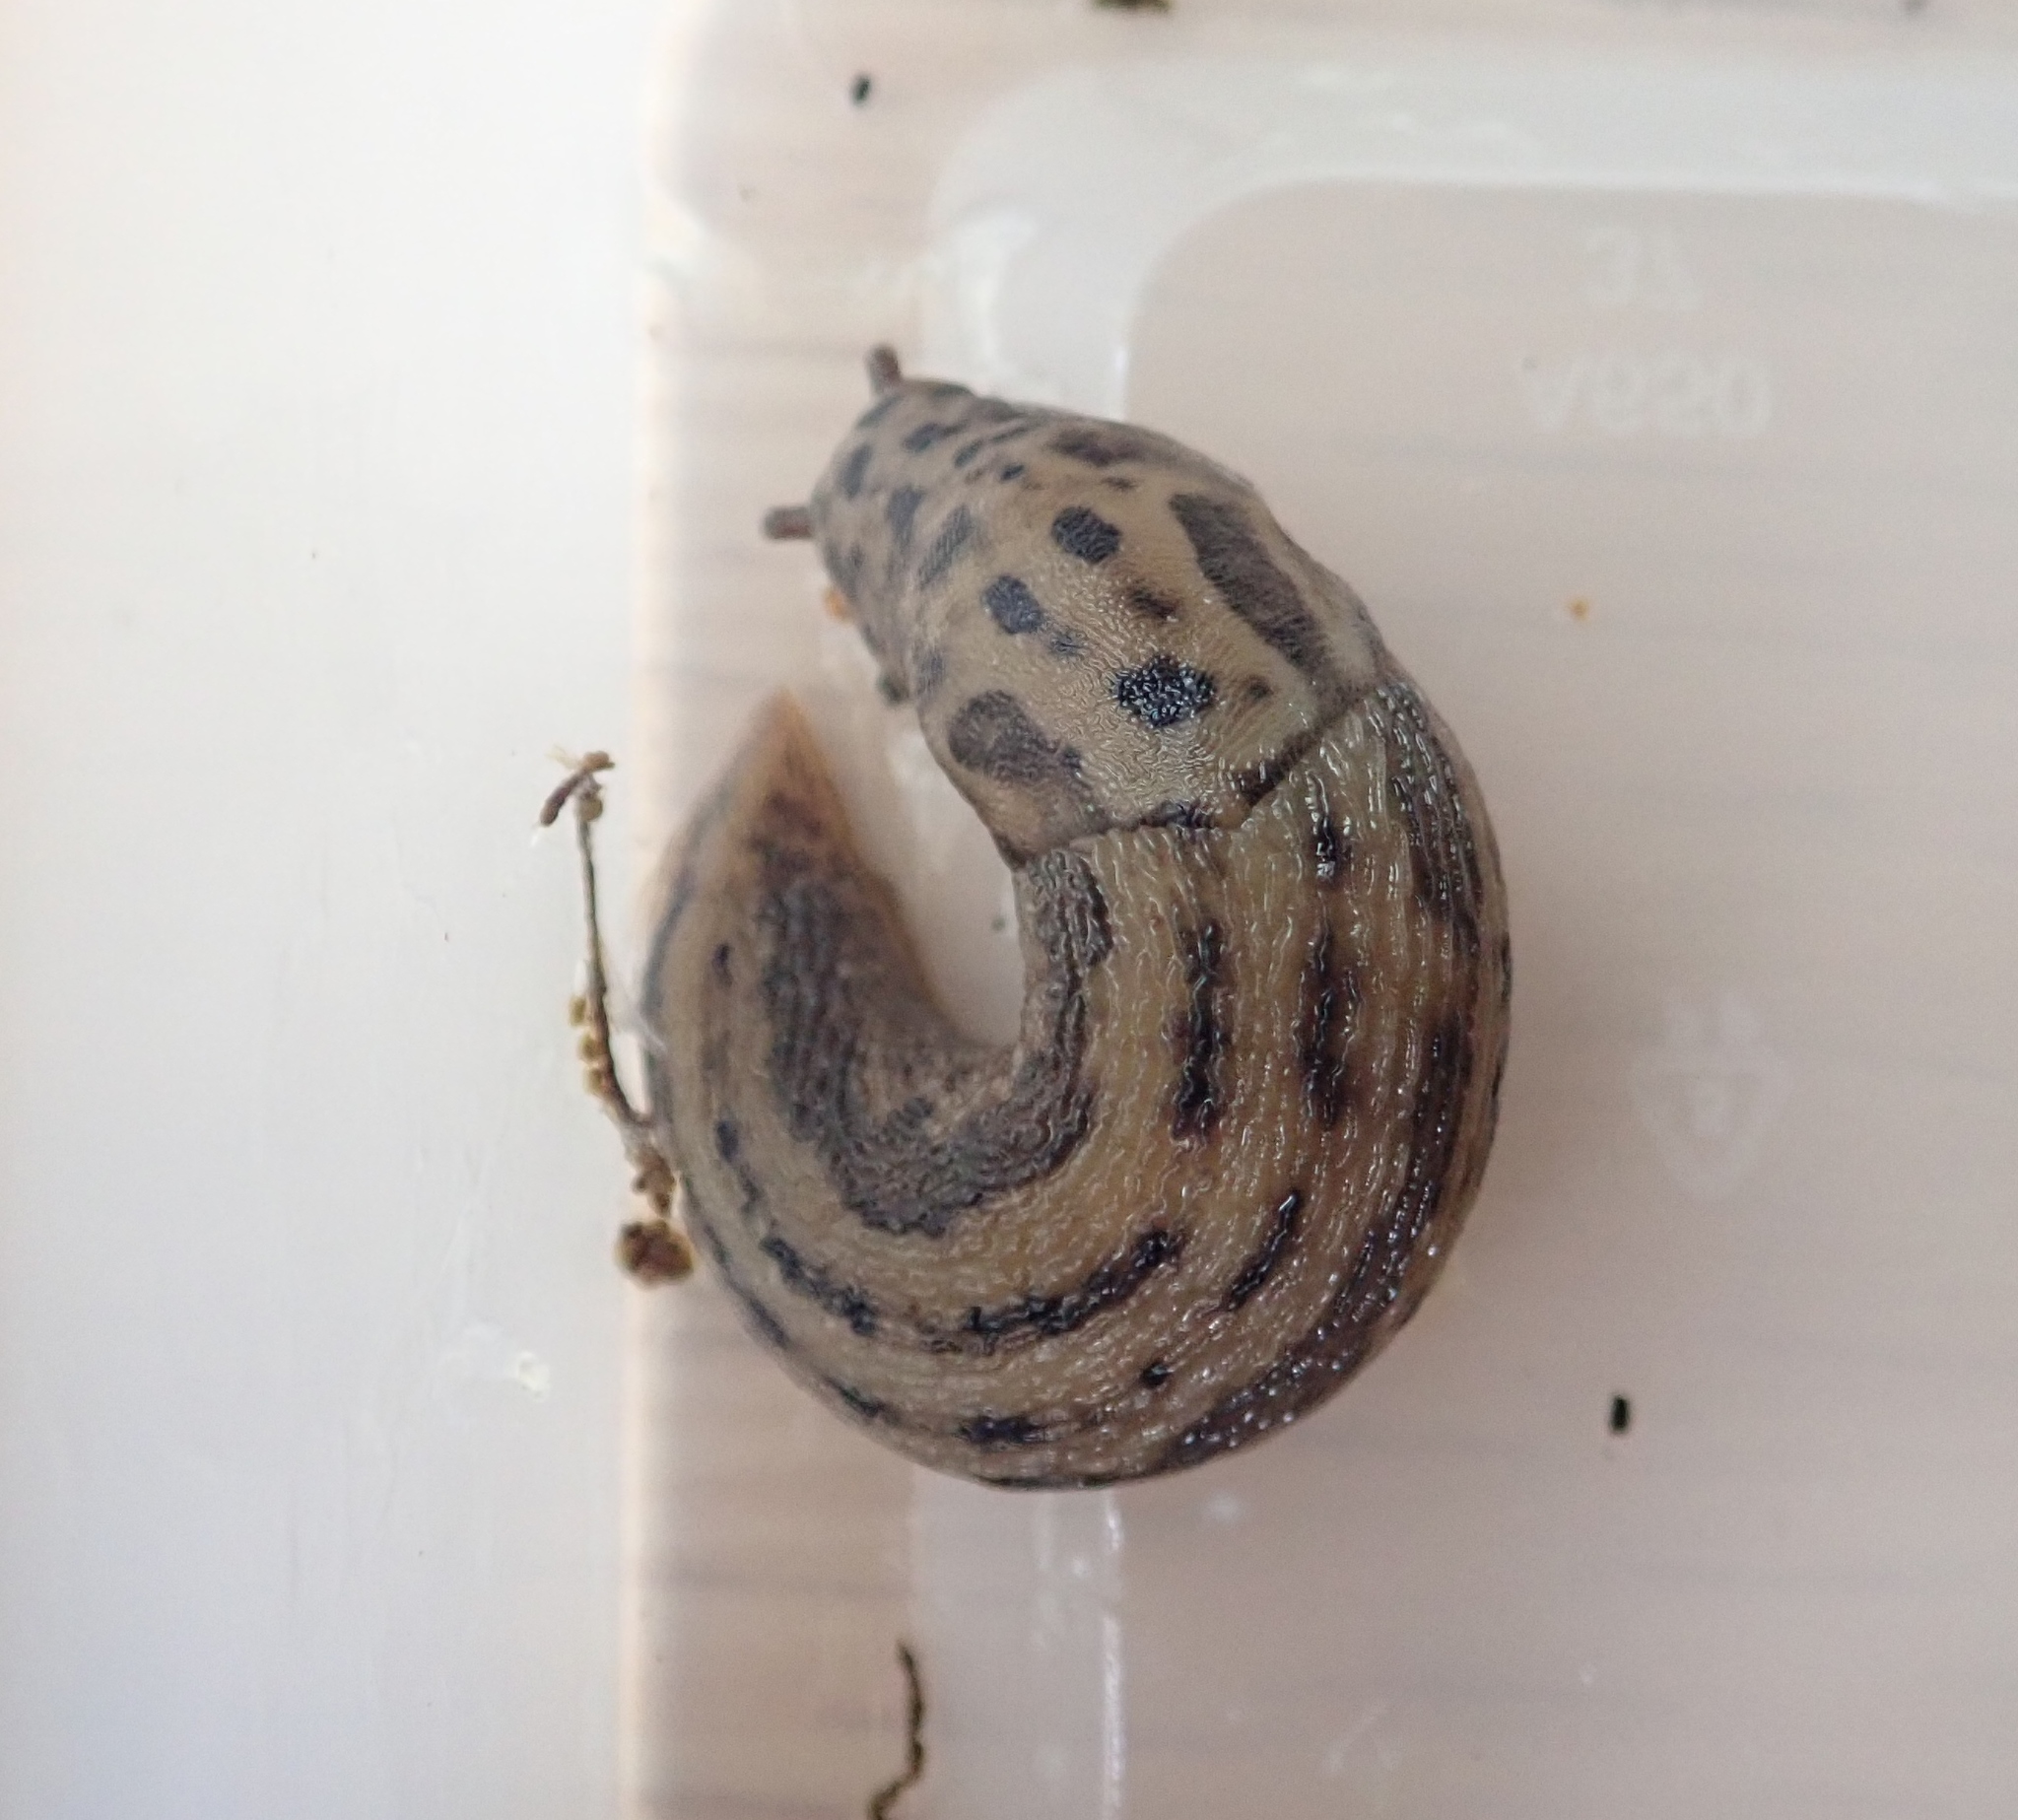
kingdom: Animalia
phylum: Mollusca
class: Gastropoda
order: Stylommatophora
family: Limacidae
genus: Limax
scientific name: Limax maximus
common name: Great grey slug
